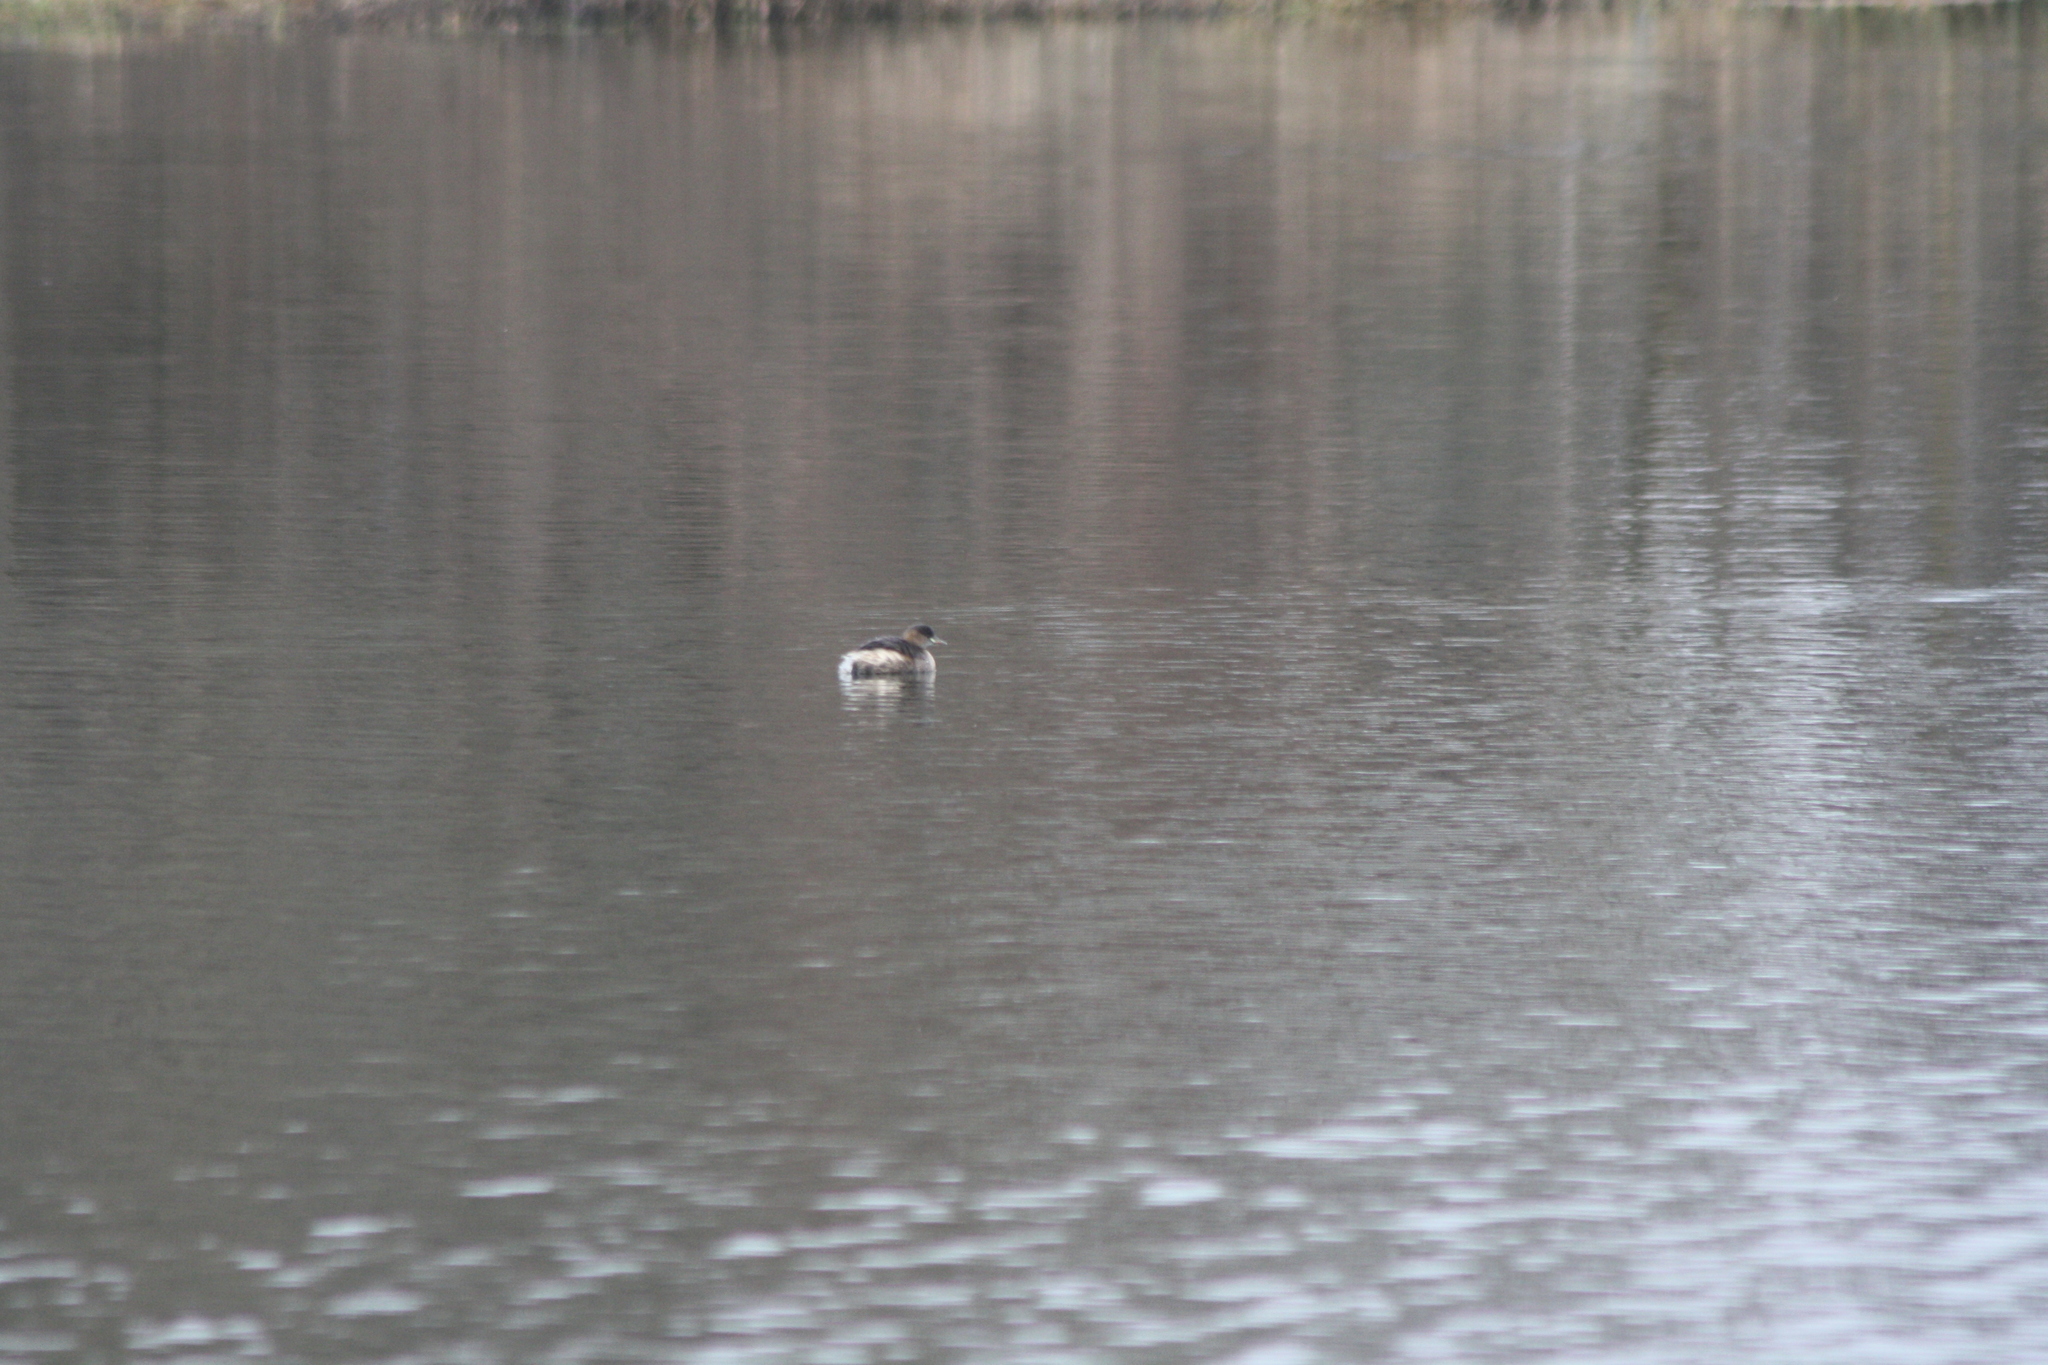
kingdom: Animalia
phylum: Chordata
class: Aves
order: Podicipediformes
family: Podicipedidae
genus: Tachybaptus
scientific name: Tachybaptus ruficollis
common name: Little grebe
